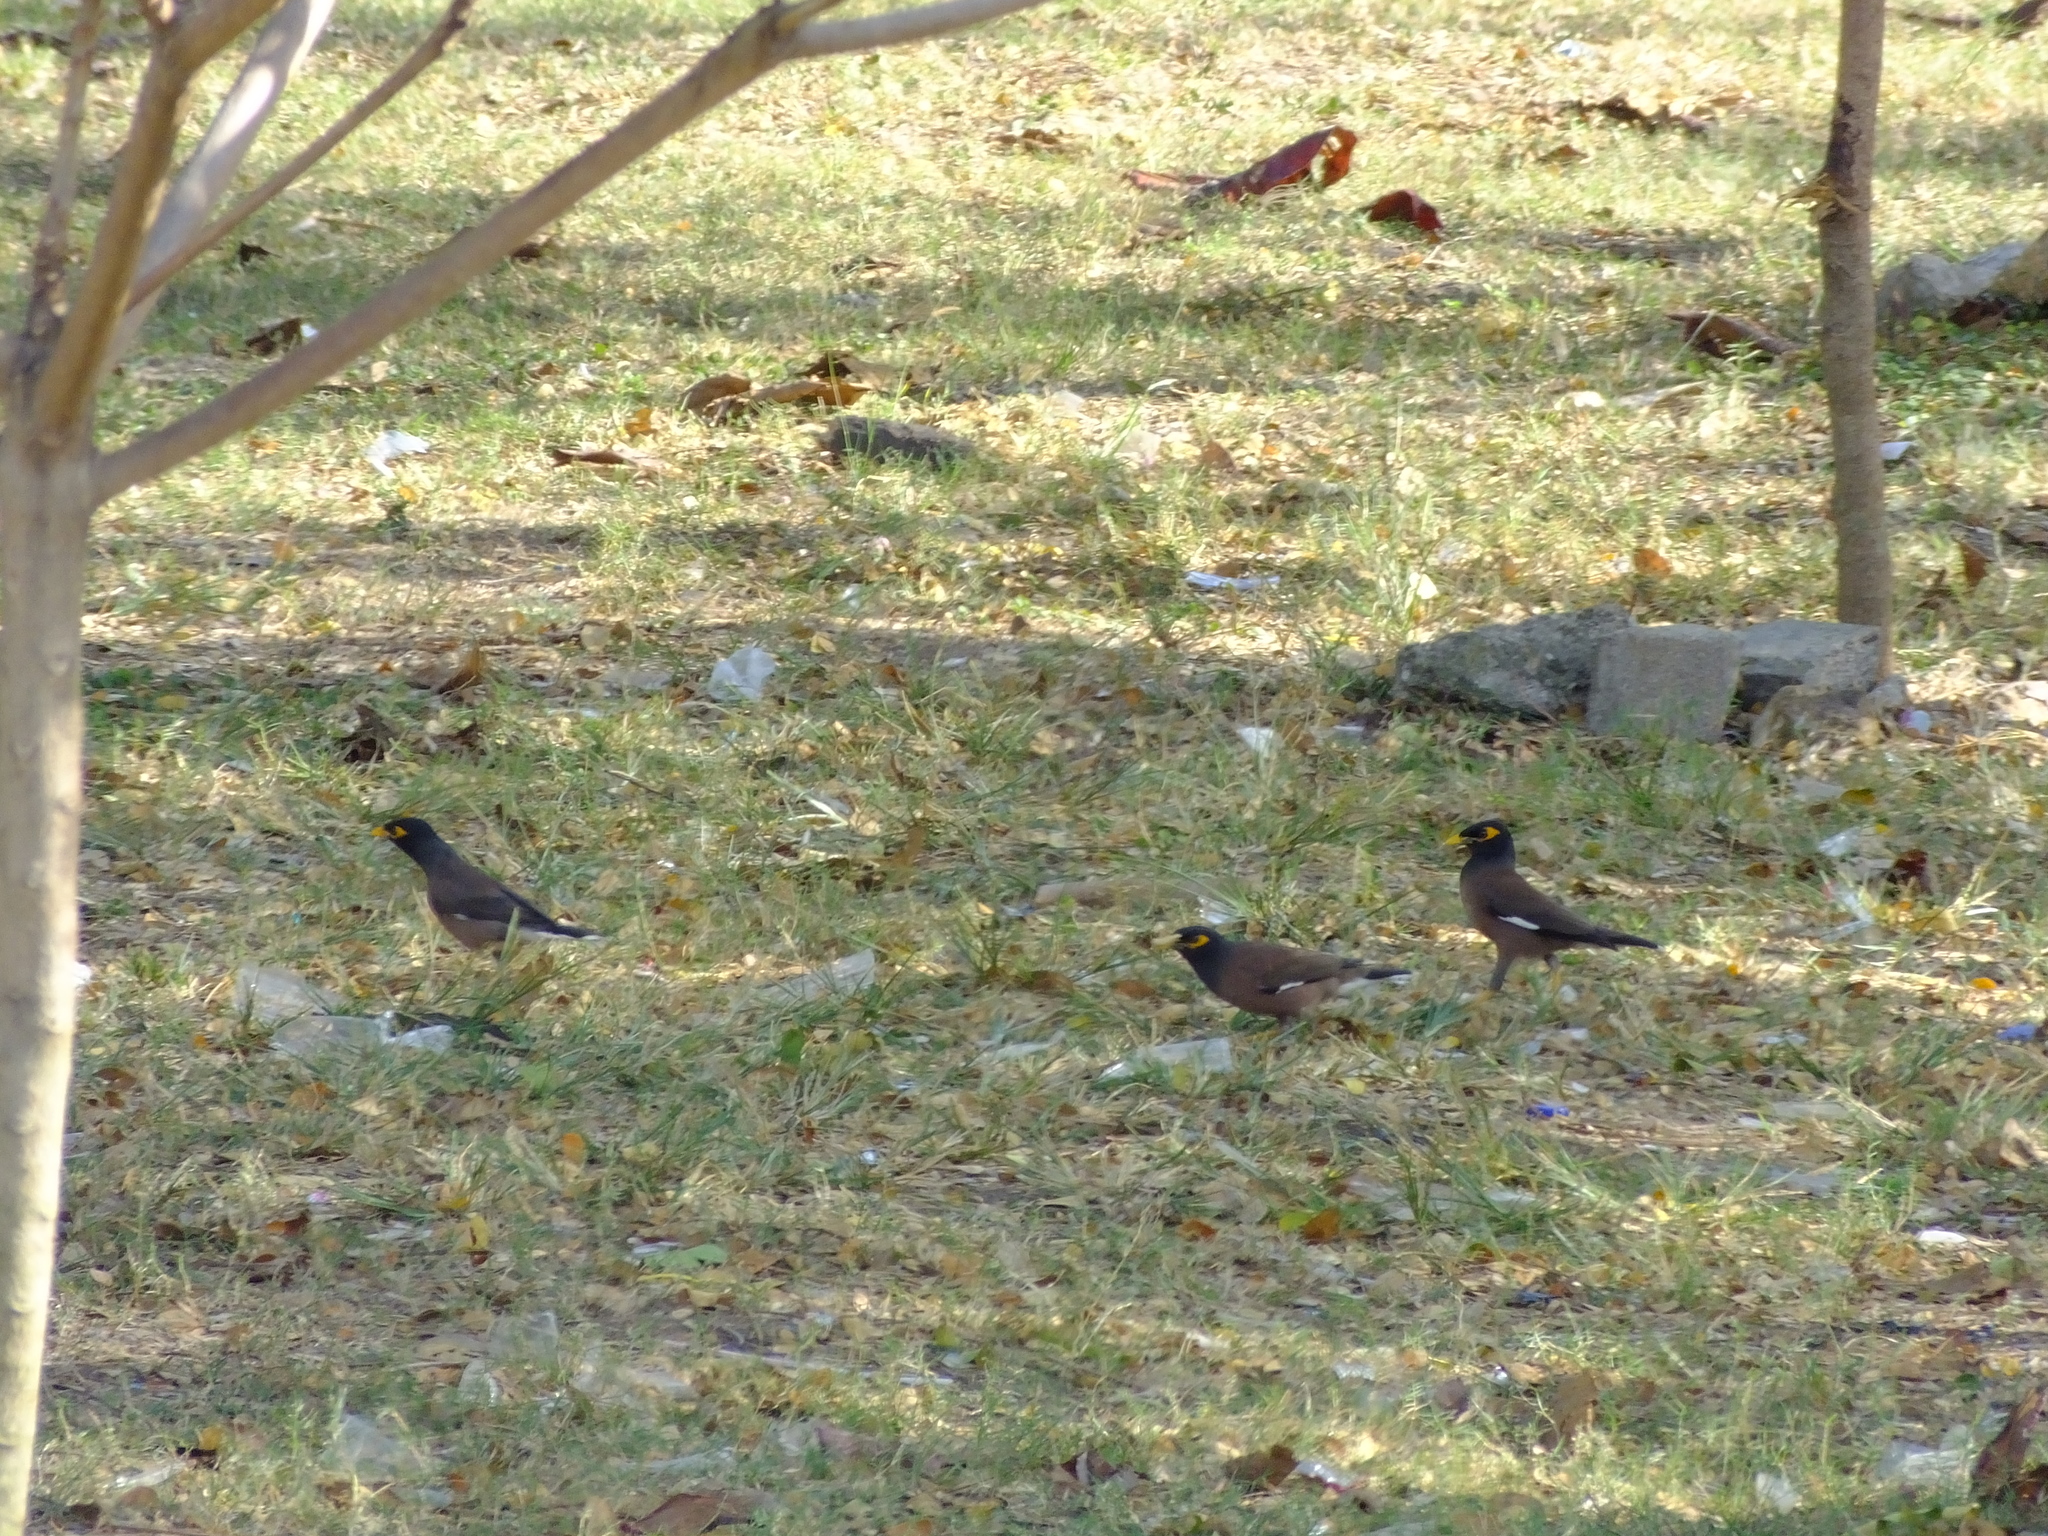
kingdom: Animalia
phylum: Chordata
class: Aves
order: Passeriformes
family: Sturnidae
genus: Acridotheres
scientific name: Acridotheres tristis
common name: Common myna
